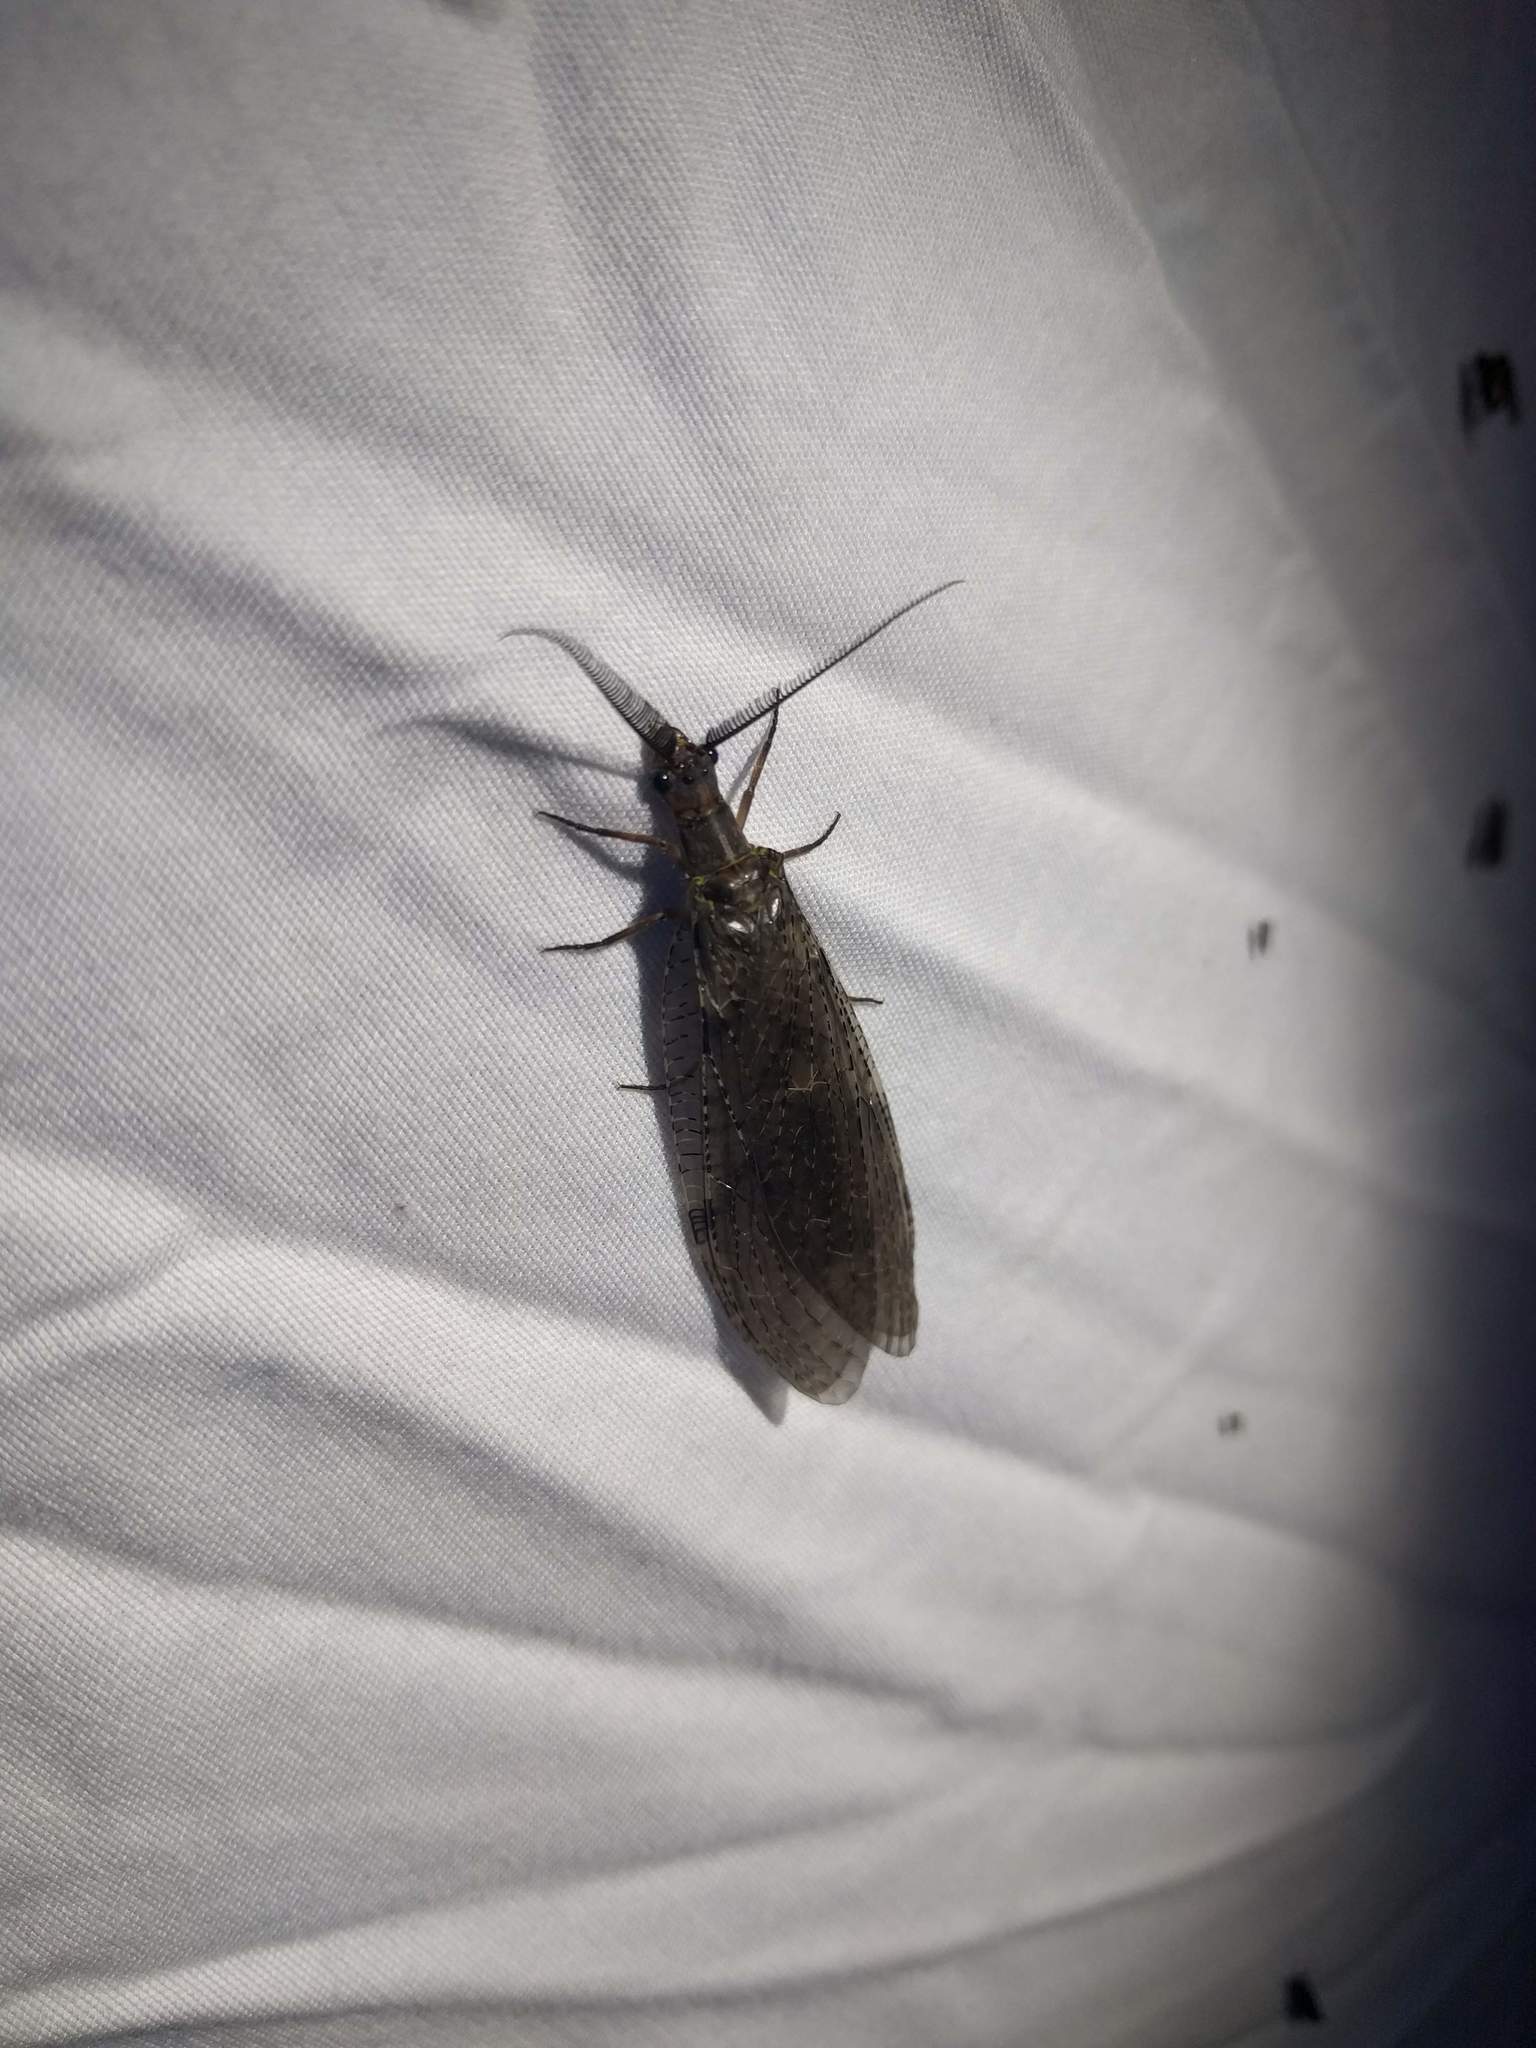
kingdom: Animalia
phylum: Arthropoda
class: Insecta
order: Megaloptera
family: Corydalidae
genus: Chauliodes
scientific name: Chauliodes pectinicornis
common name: Summer fishfly
